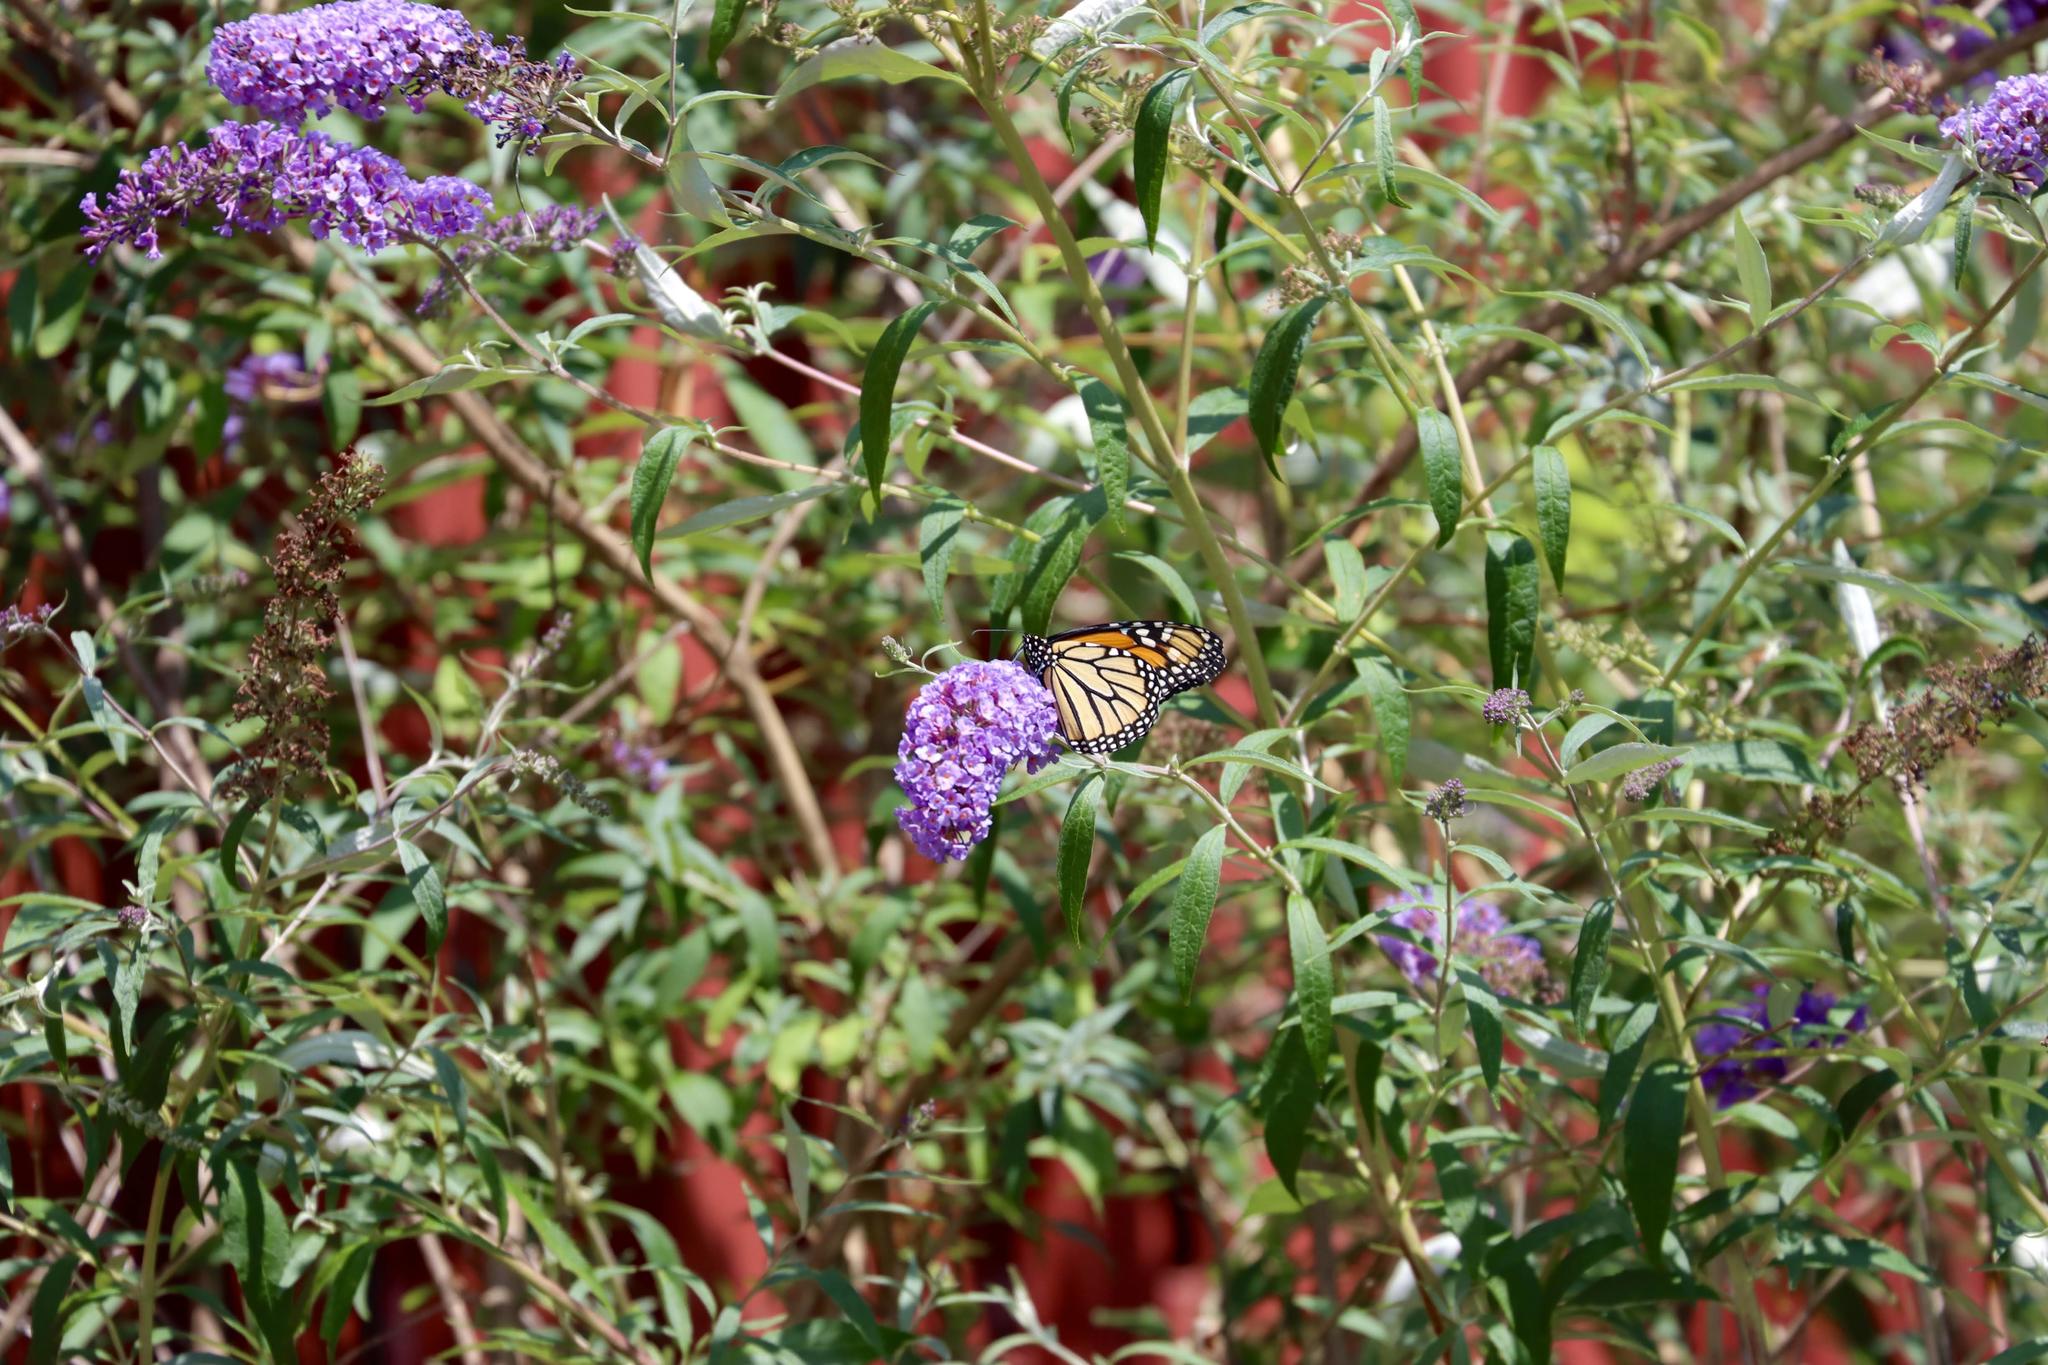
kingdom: Animalia
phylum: Arthropoda
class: Insecta
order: Lepidoptera
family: Nymphalidae
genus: Danaus
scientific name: Danaus plexippus
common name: Monarch
